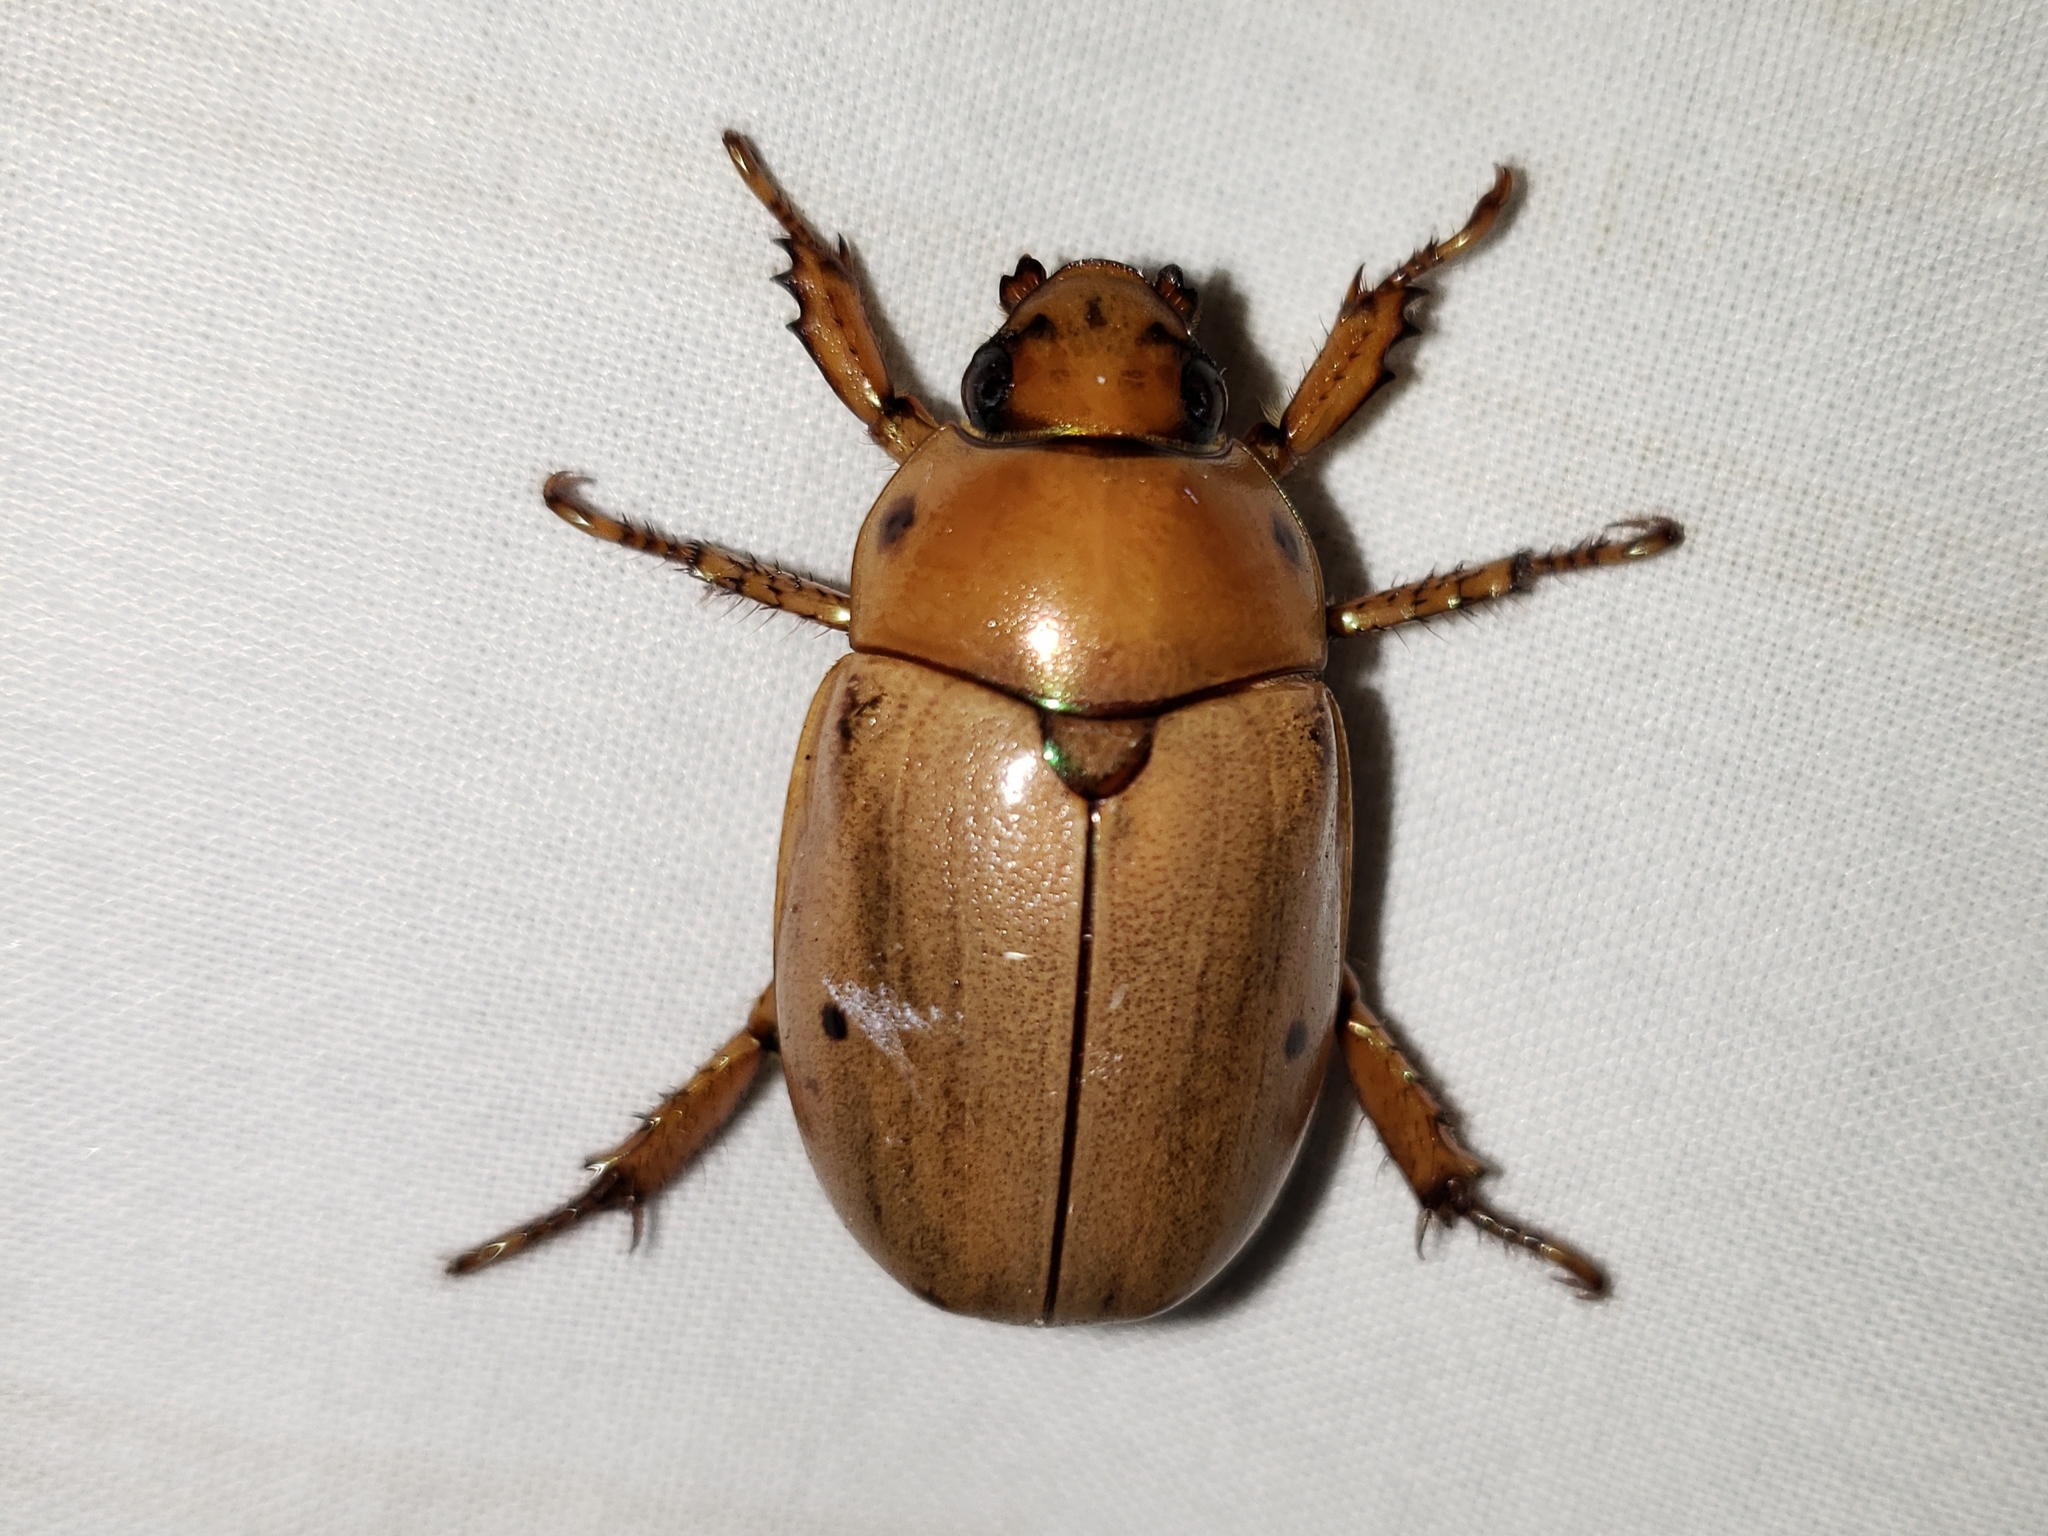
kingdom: Animalia
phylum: Arthropoda
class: Insecta
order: Coleoptera
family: Scarabaeidae
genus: Pelidnota
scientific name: Pelidnota punctata
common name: Grapevine beetle
